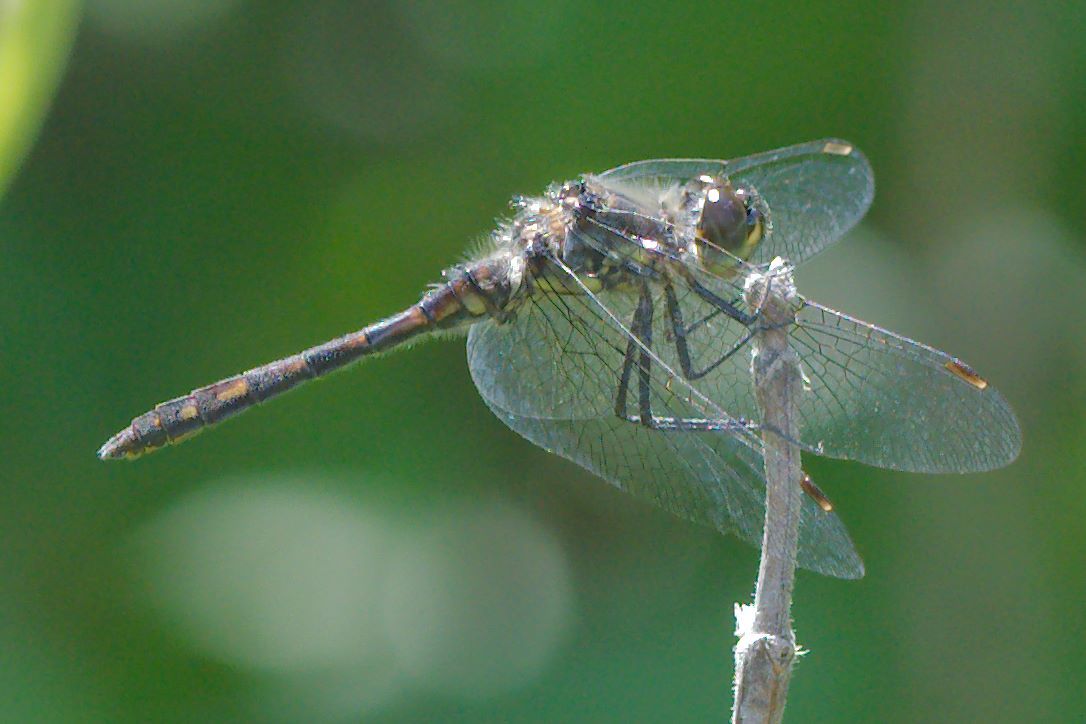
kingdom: Animalia
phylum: Arthropoda
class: Insecta
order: Odonata
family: Libellulidae
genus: Sympetrum
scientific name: Sympetrum danae
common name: Black darter
